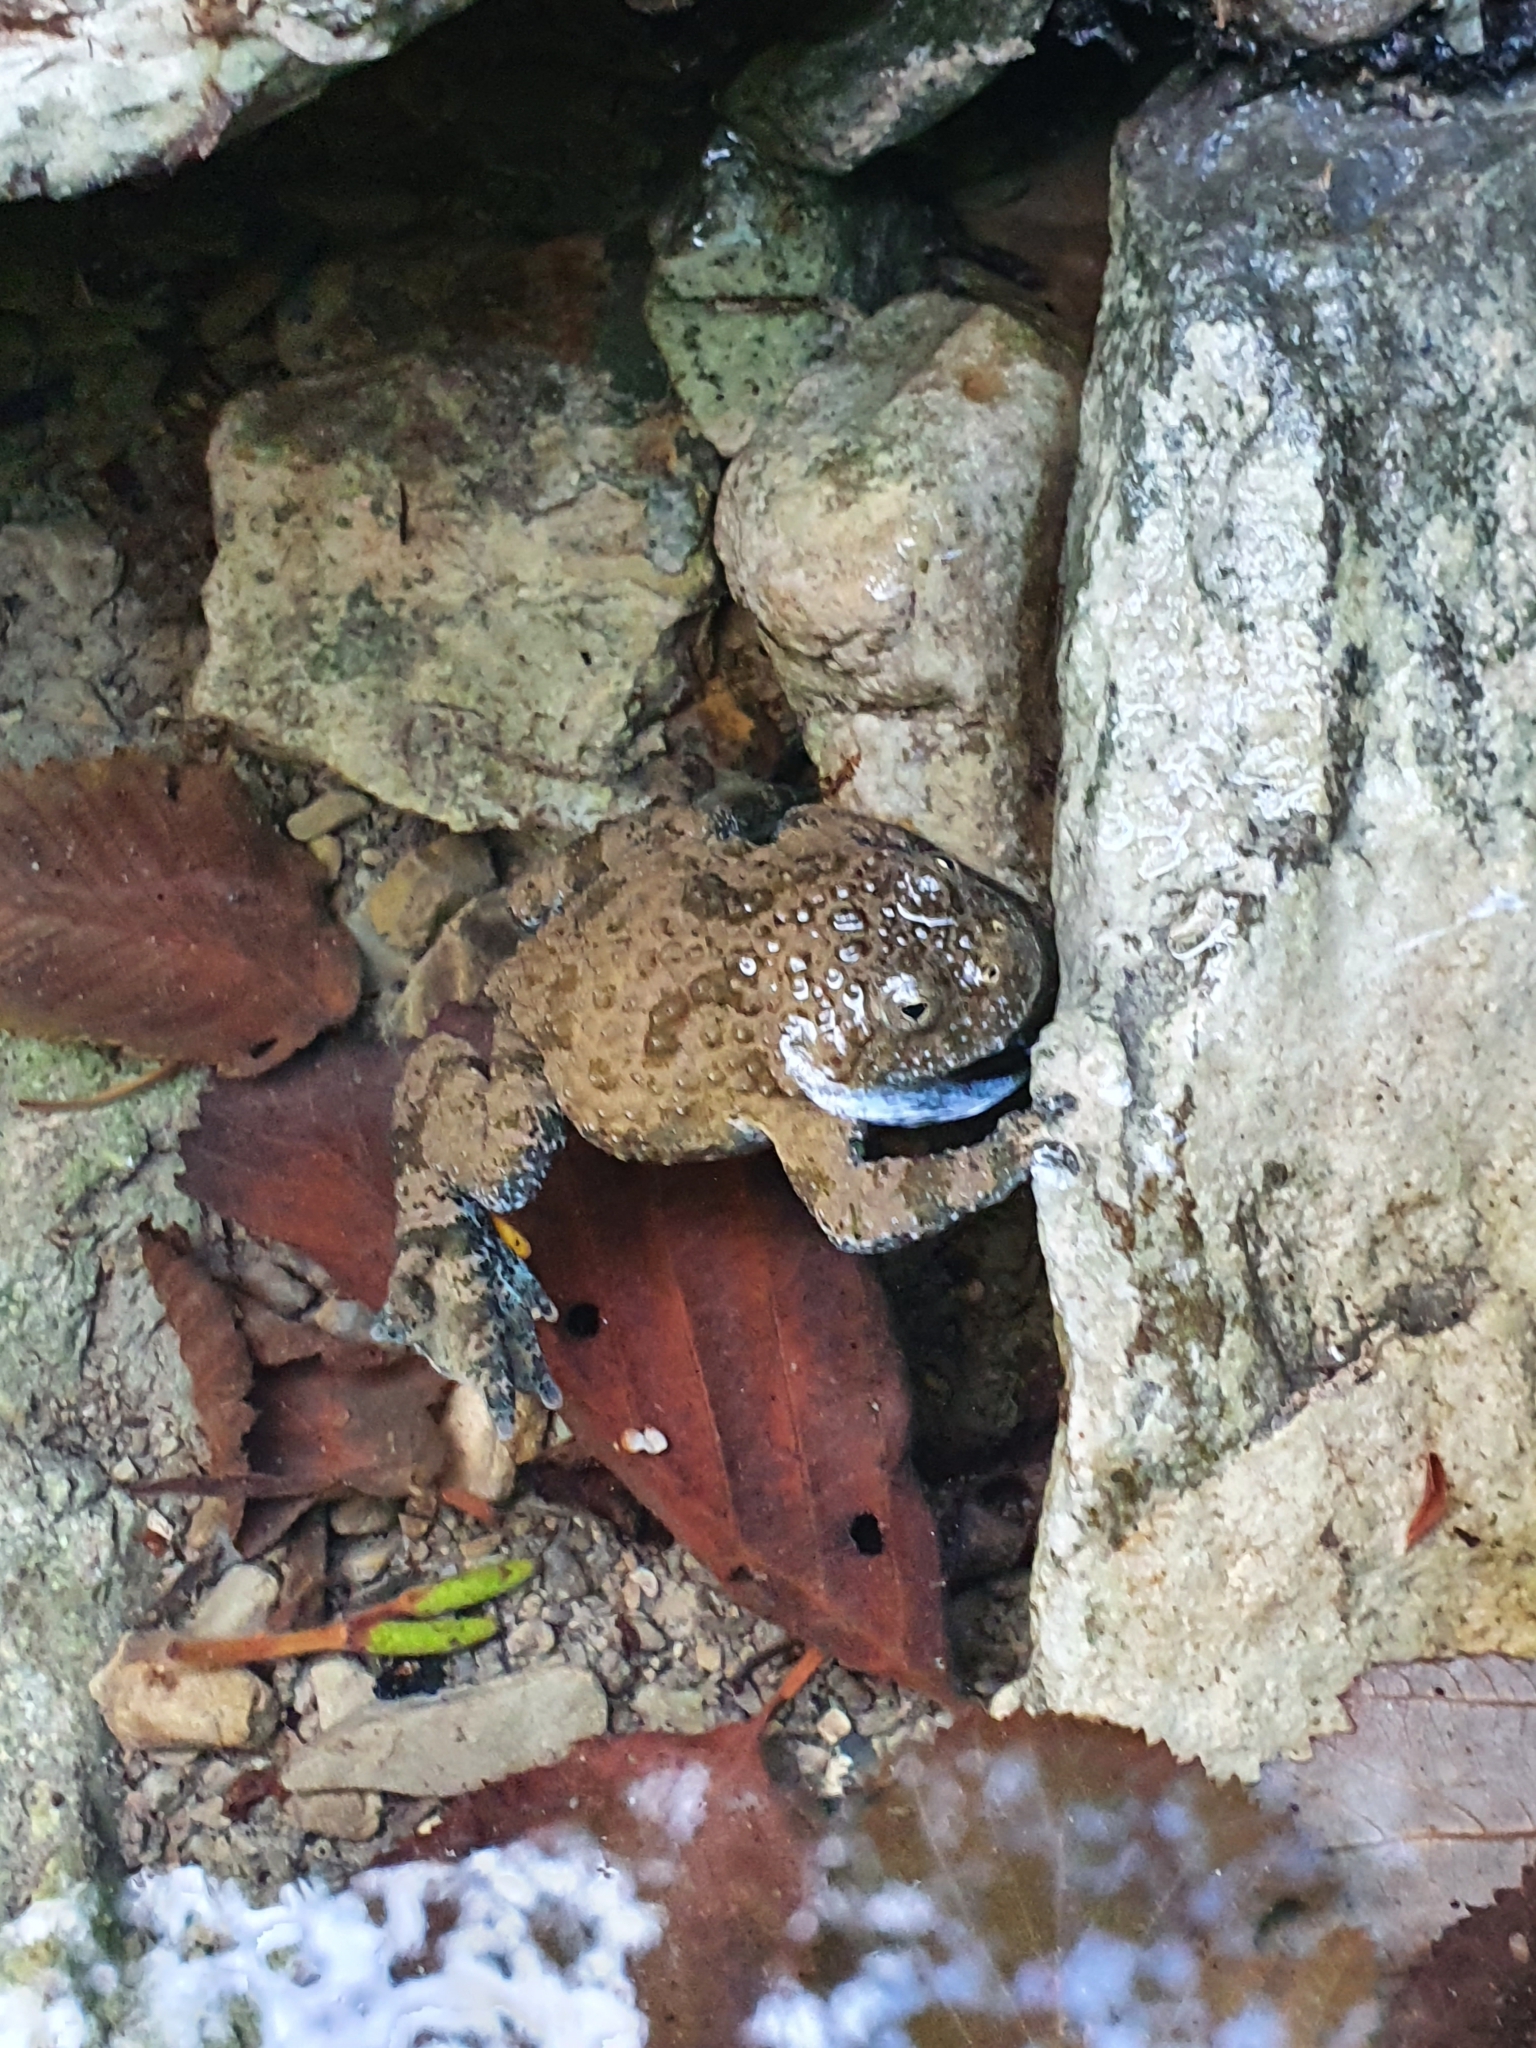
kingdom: Animalia
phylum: Chordata
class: Amphibia
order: Anura
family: Bombinatoridae
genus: Bombina
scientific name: Bombina variegata
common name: Yellow-bellied toad
